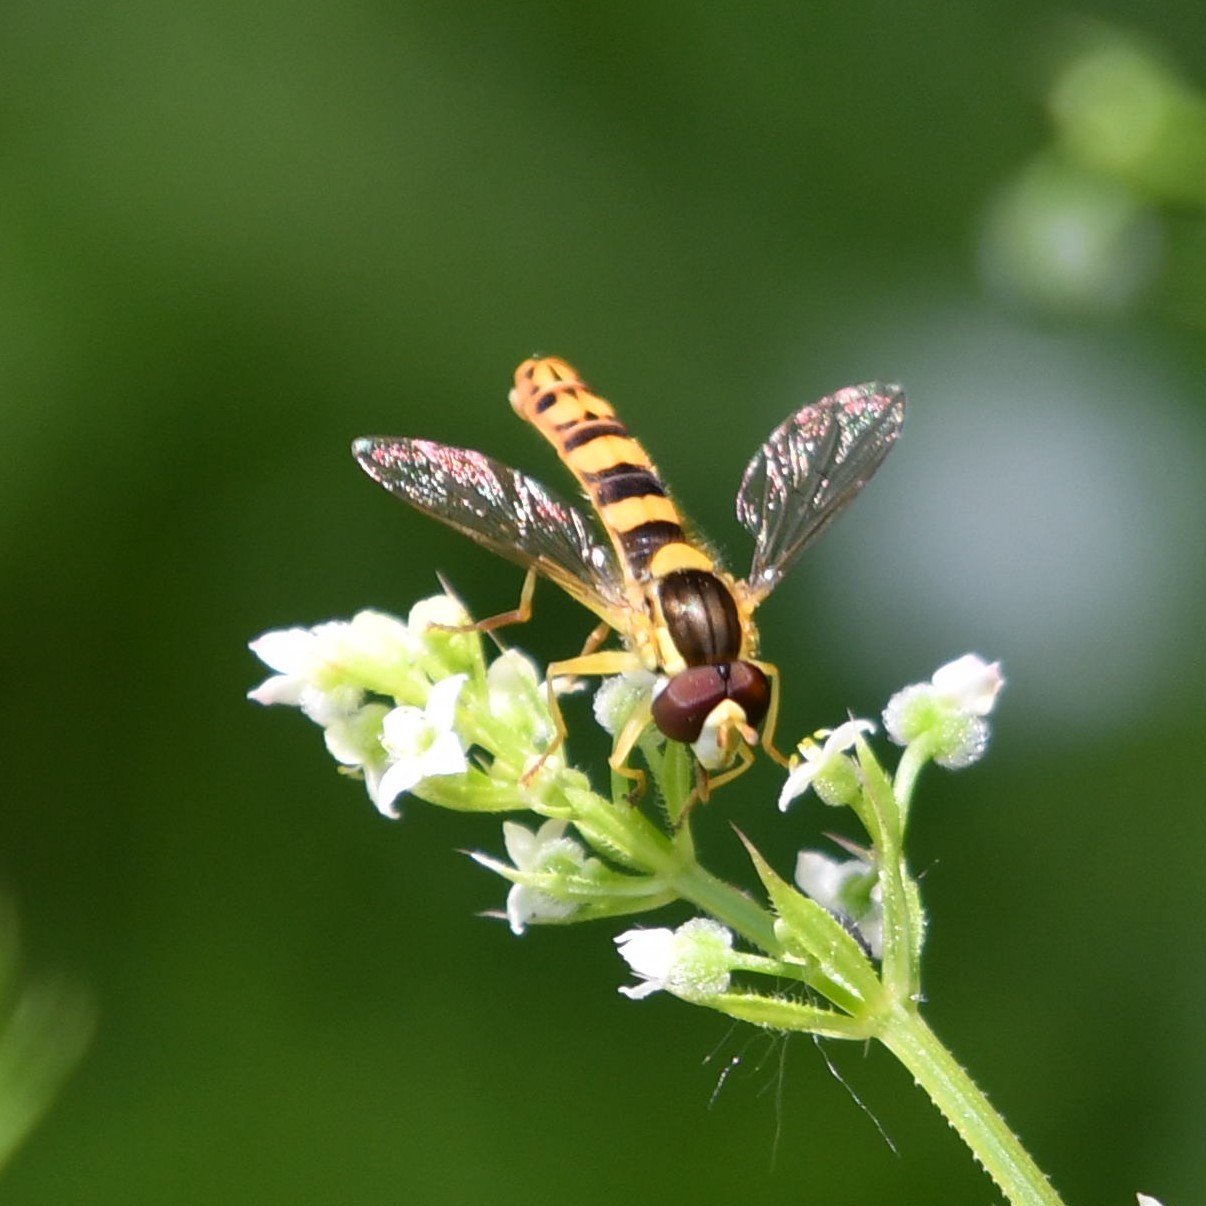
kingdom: Animalia
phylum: Arthropoda
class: Insecta
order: Diptera
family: Syrphidae
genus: Sphaerophoria
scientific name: Sphaerophoria scripta
